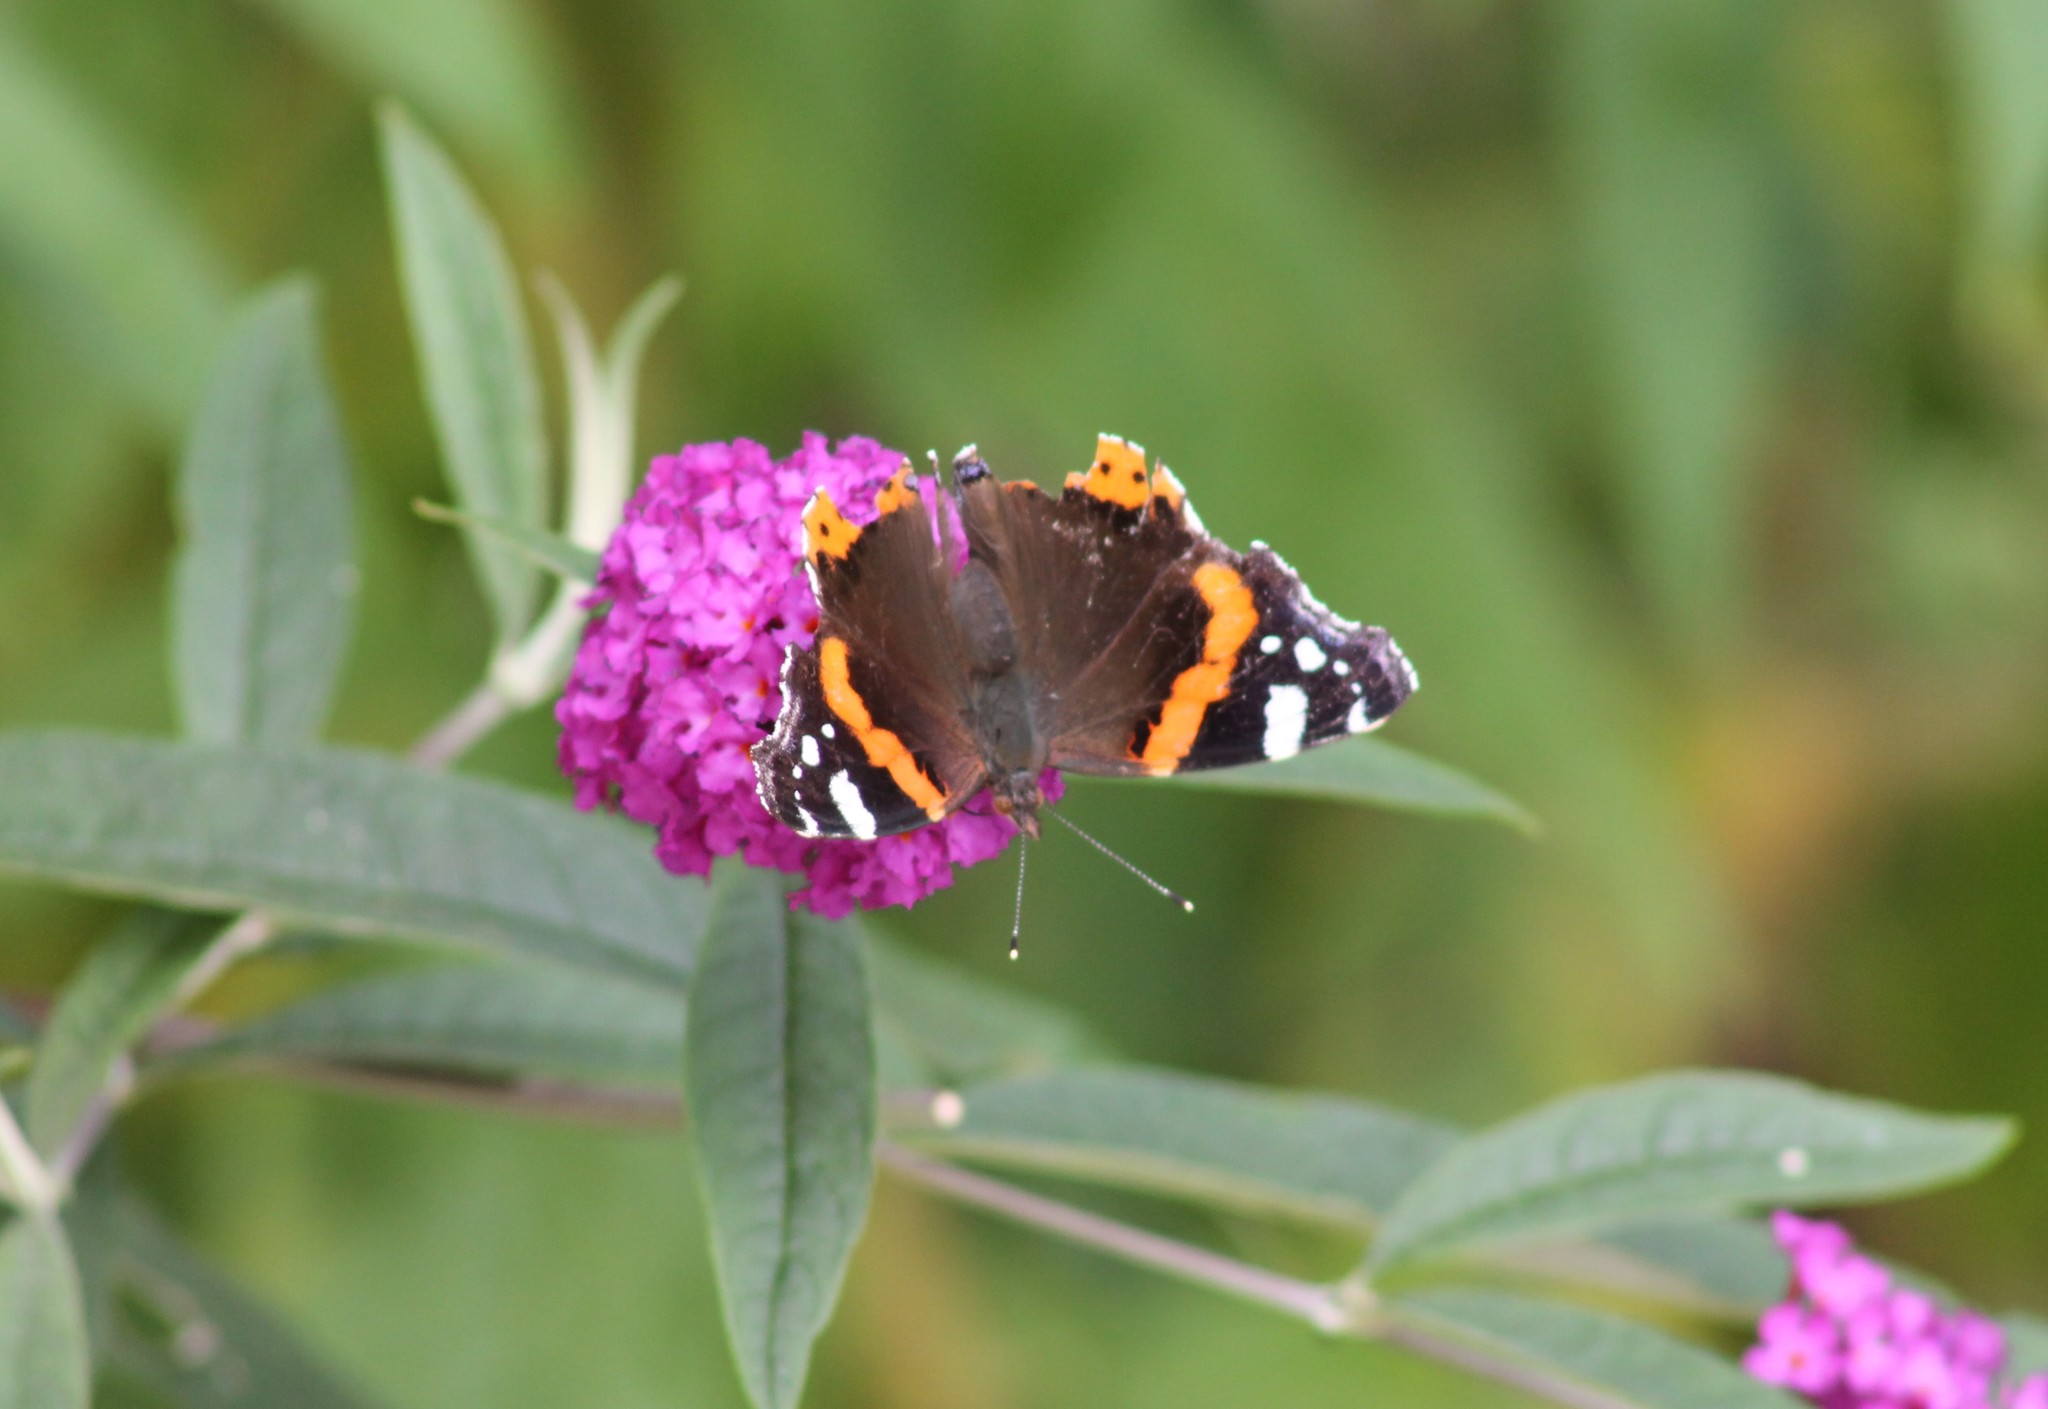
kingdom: Animalia
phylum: Arthropoda
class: Insecta
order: Lepidoptera
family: Nymphalidae
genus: Vanessa
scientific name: Vanessa atalanta
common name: Red admiral
